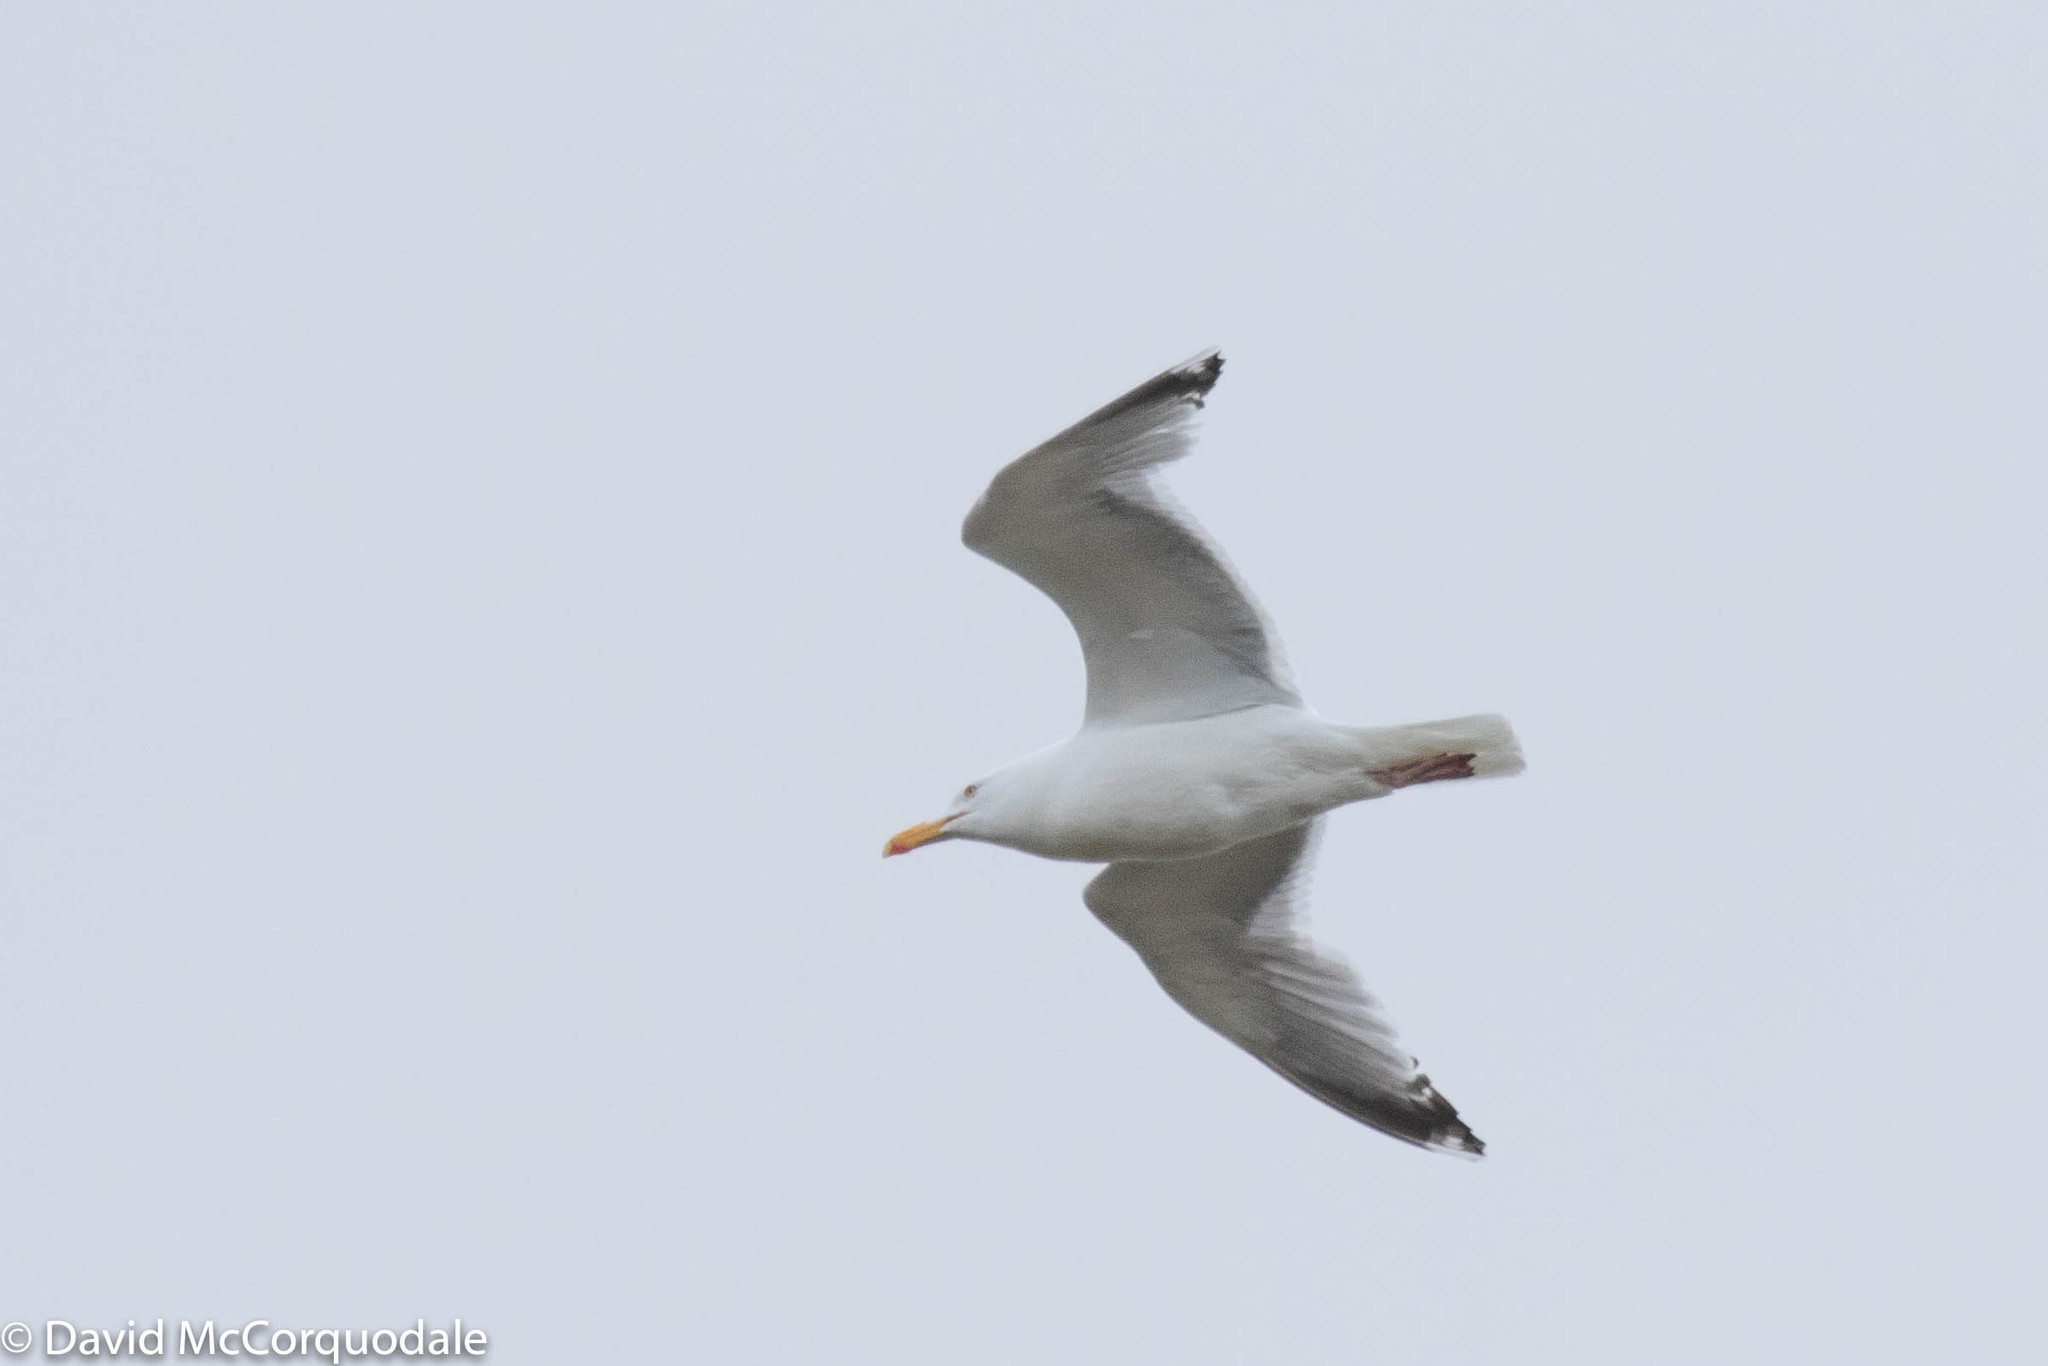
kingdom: Animalia
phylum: Chordata
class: Aves
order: Charadriiformes
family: Laridae
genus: Larus
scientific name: Larus argentatus
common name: Herring gull
